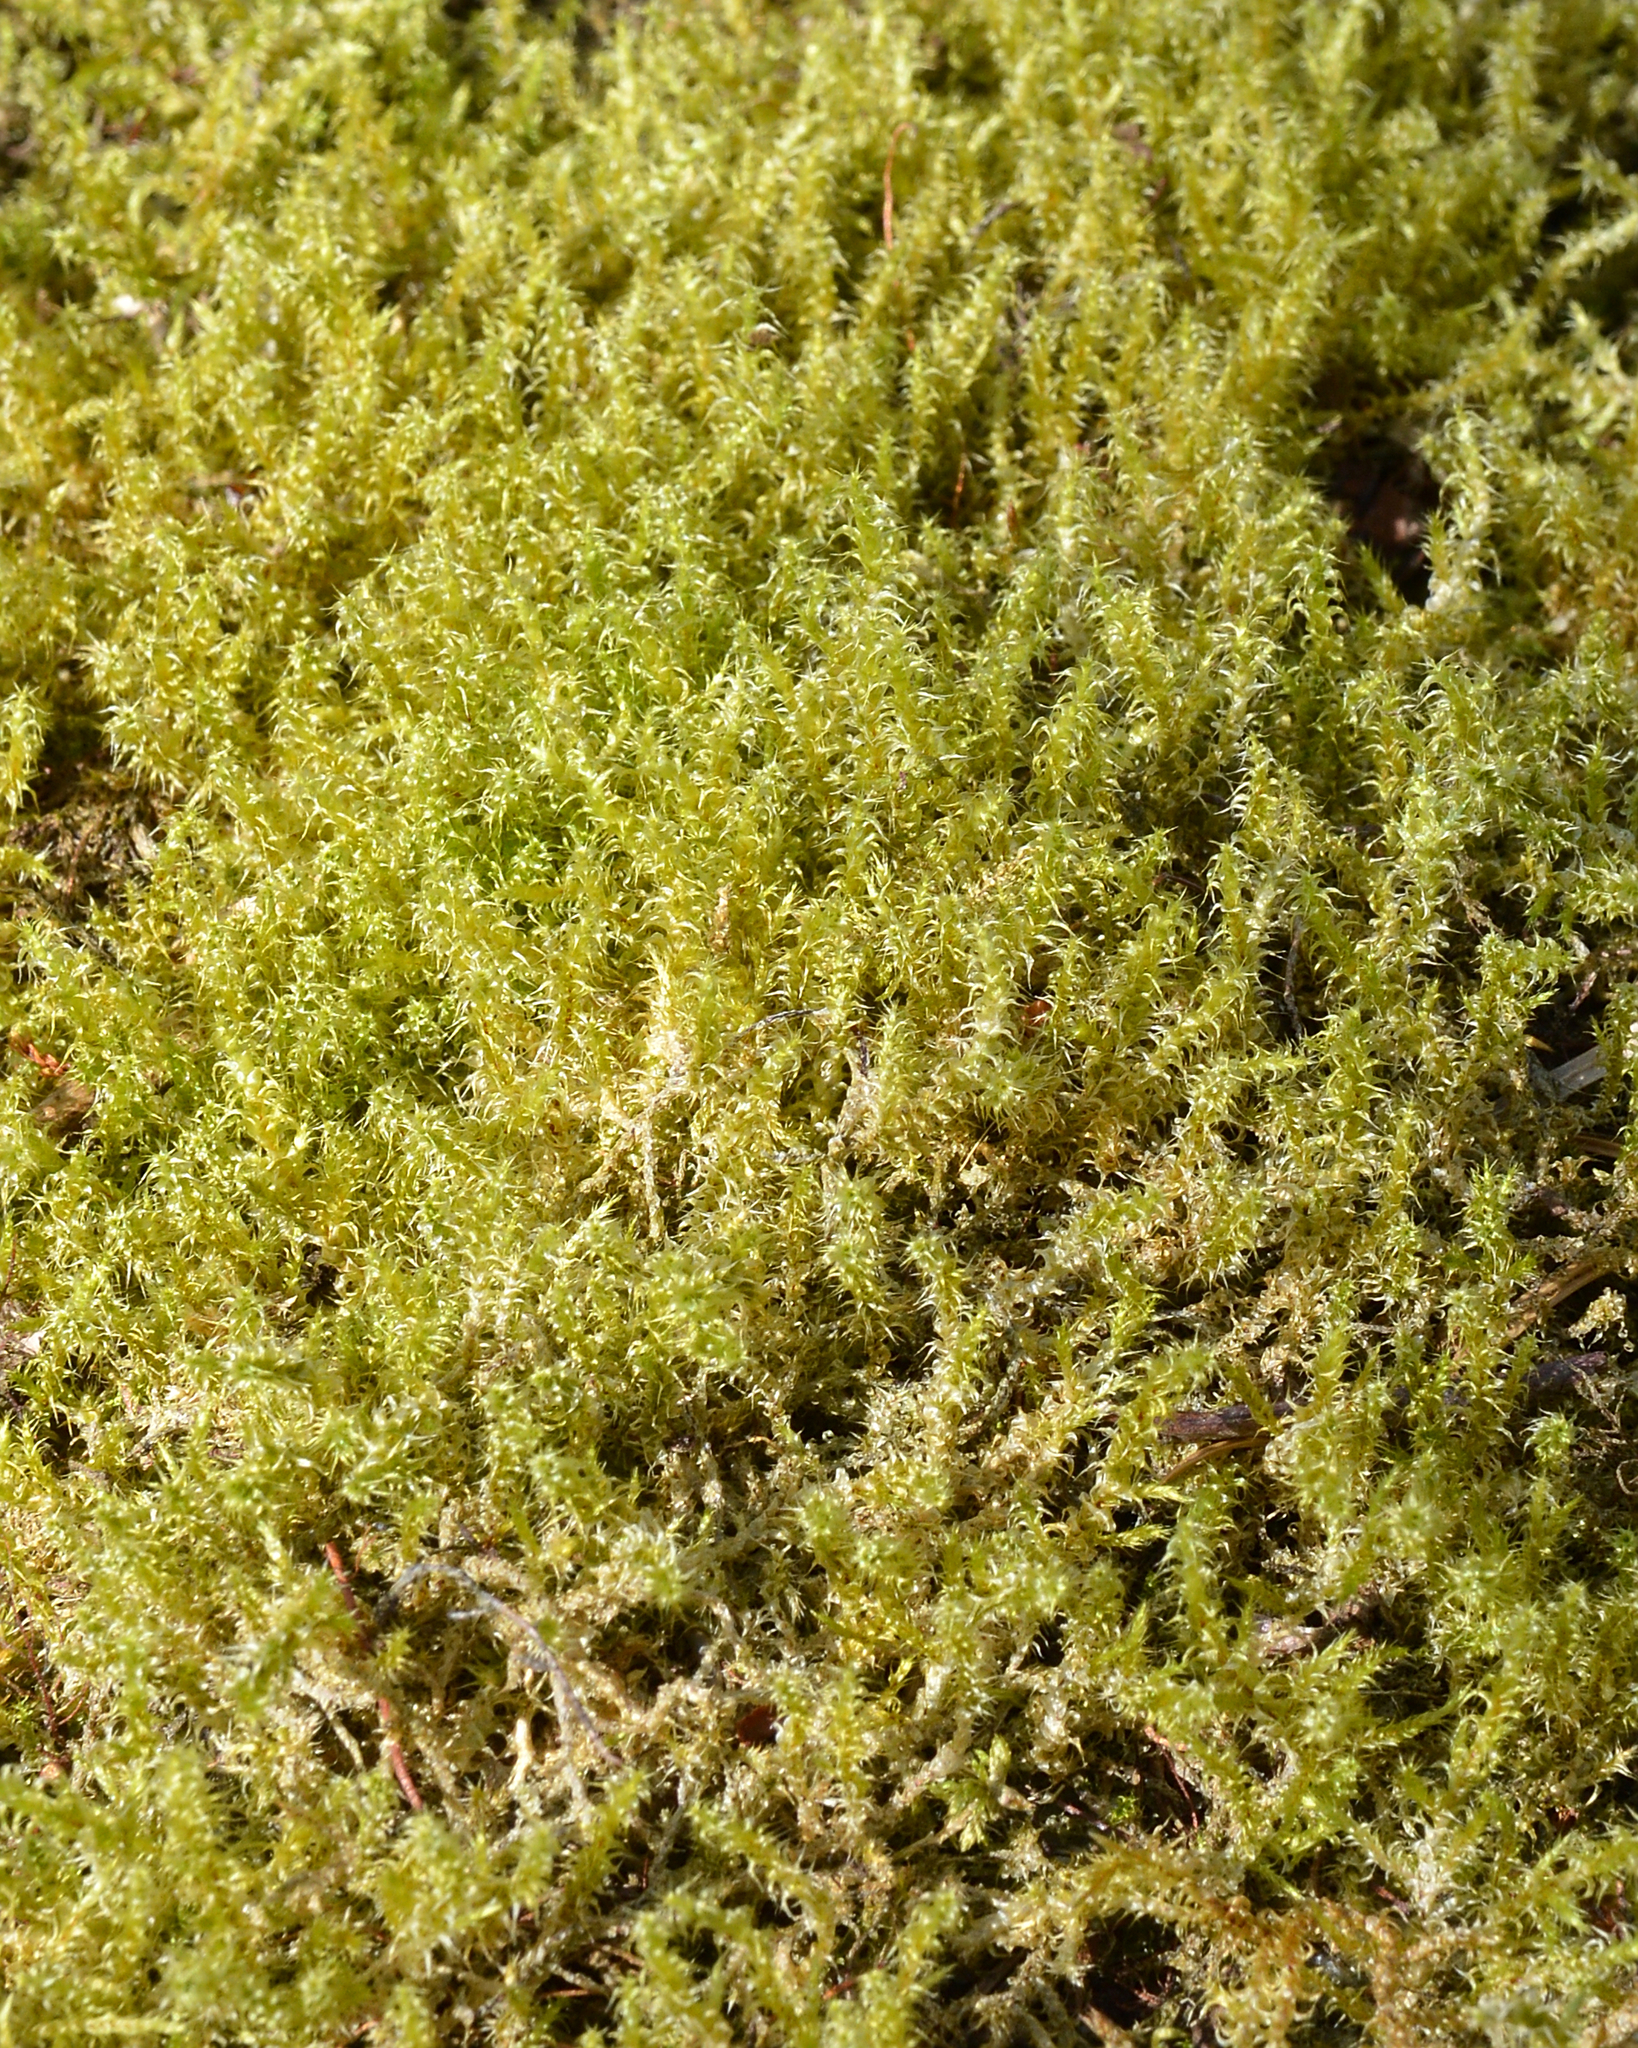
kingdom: Plantae
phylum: Bryophyta
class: Bryopsida
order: Hypnales
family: Hylocomiaceae
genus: Rhytidiadelphus
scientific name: Rhytidiadelphus squarrosus
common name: Springy turf-moss
